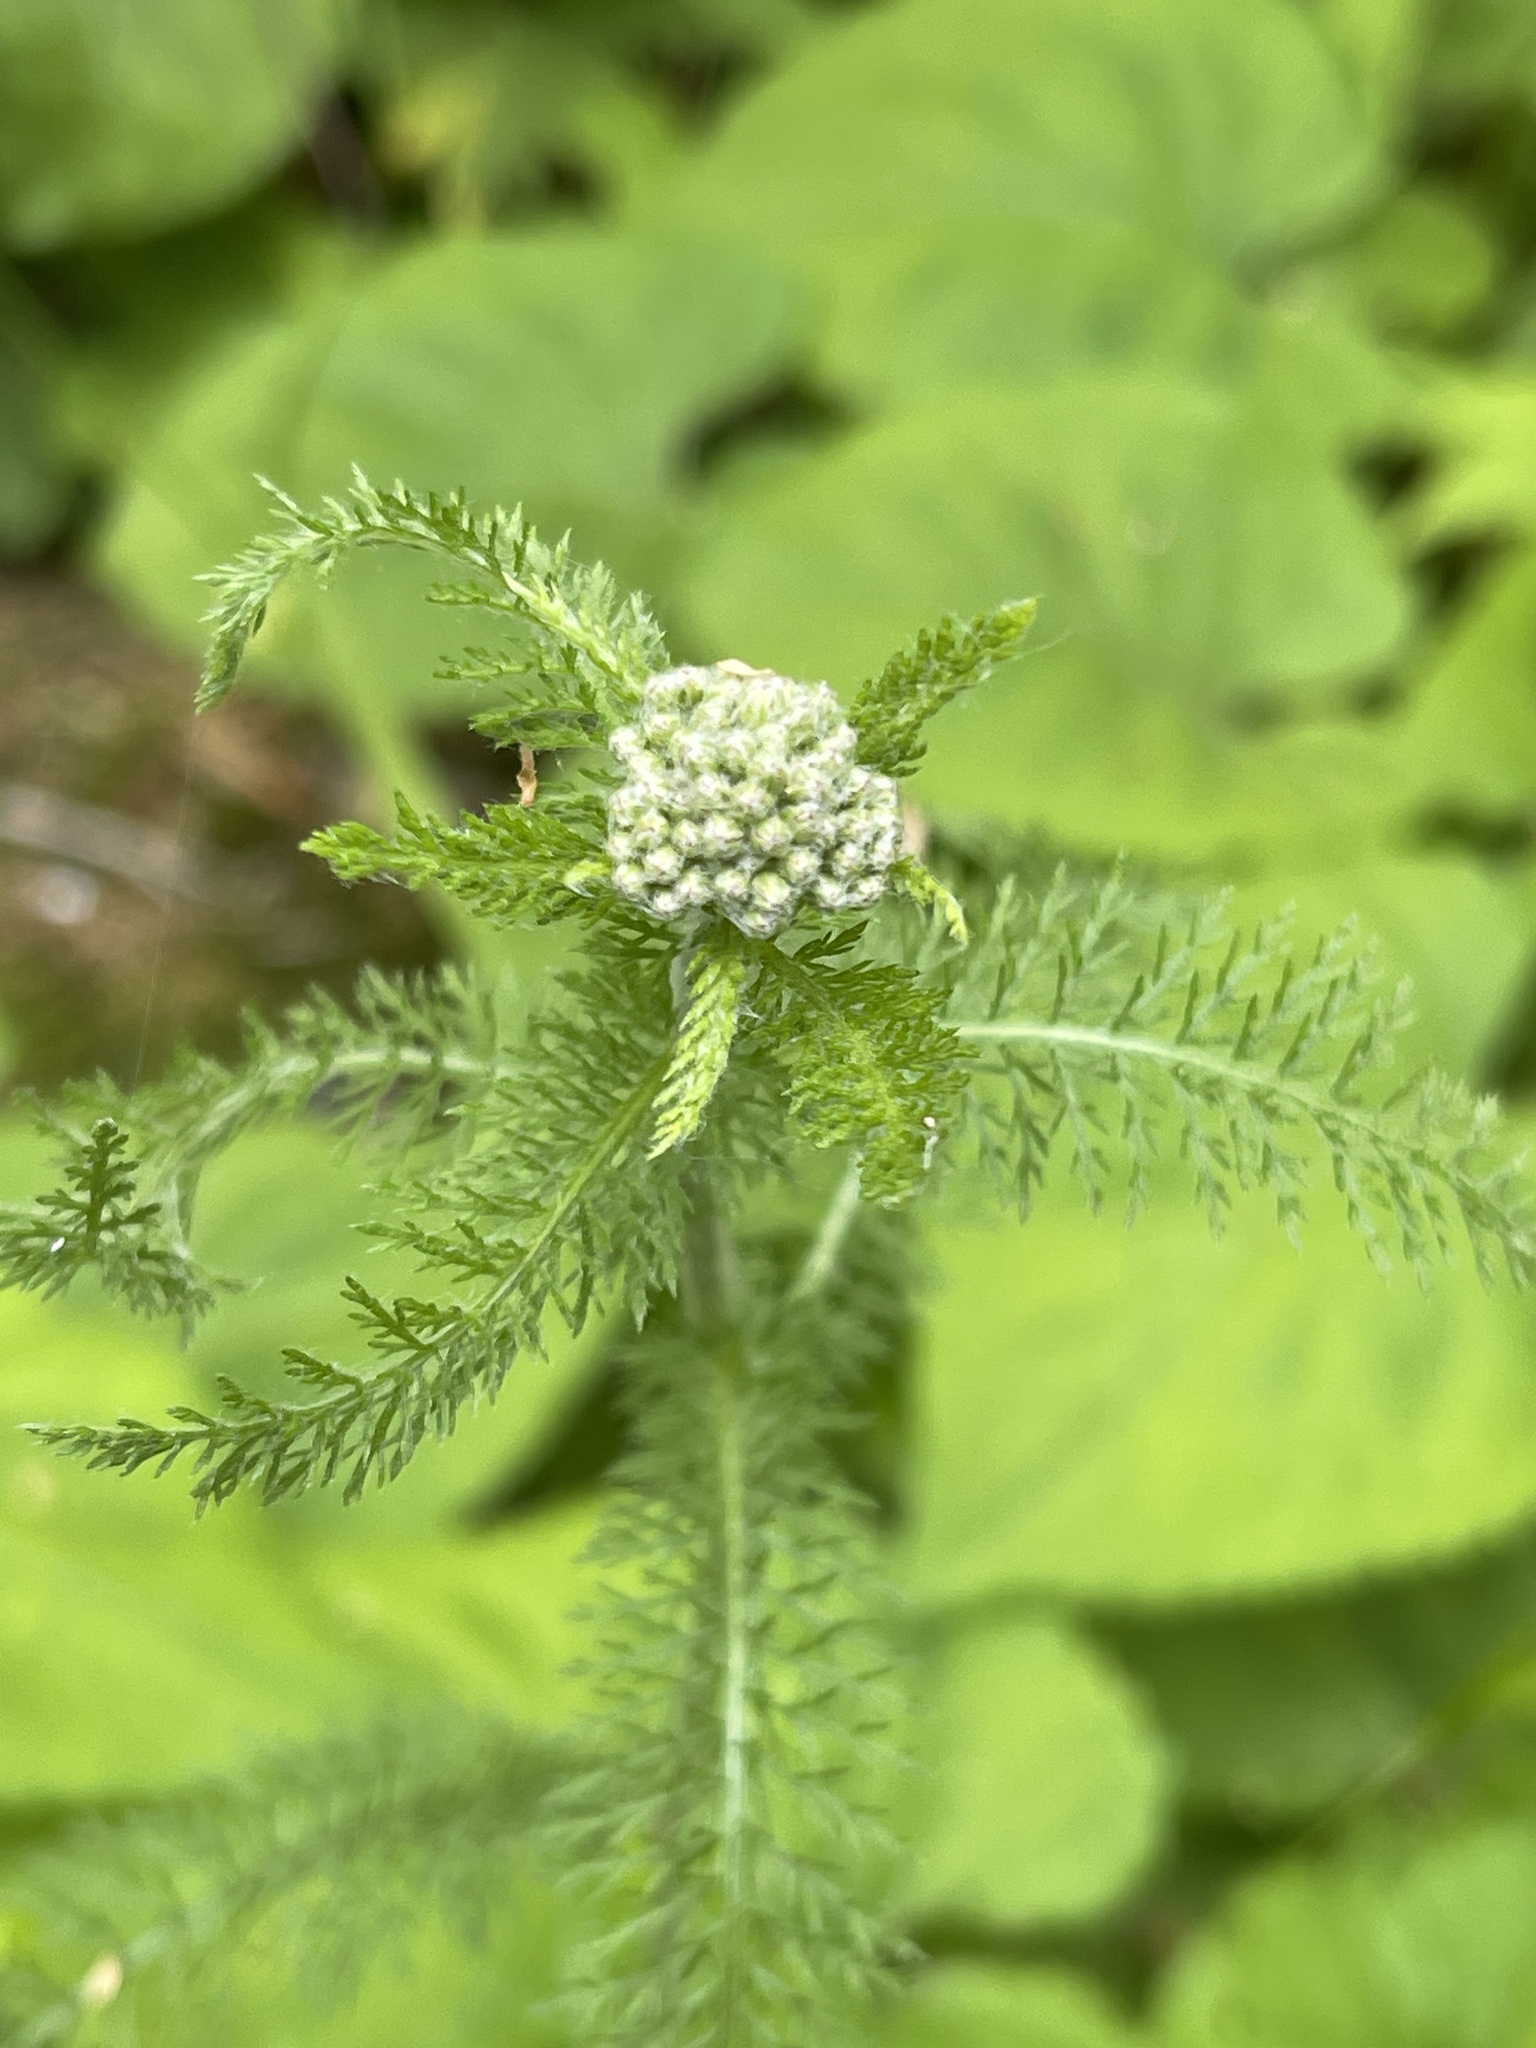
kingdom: Plantae
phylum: Tracheophyta
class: Magnoliopsida
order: Asterales
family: Asteraceae
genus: Achillea
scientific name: Achillea millefolium
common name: Yarrow
